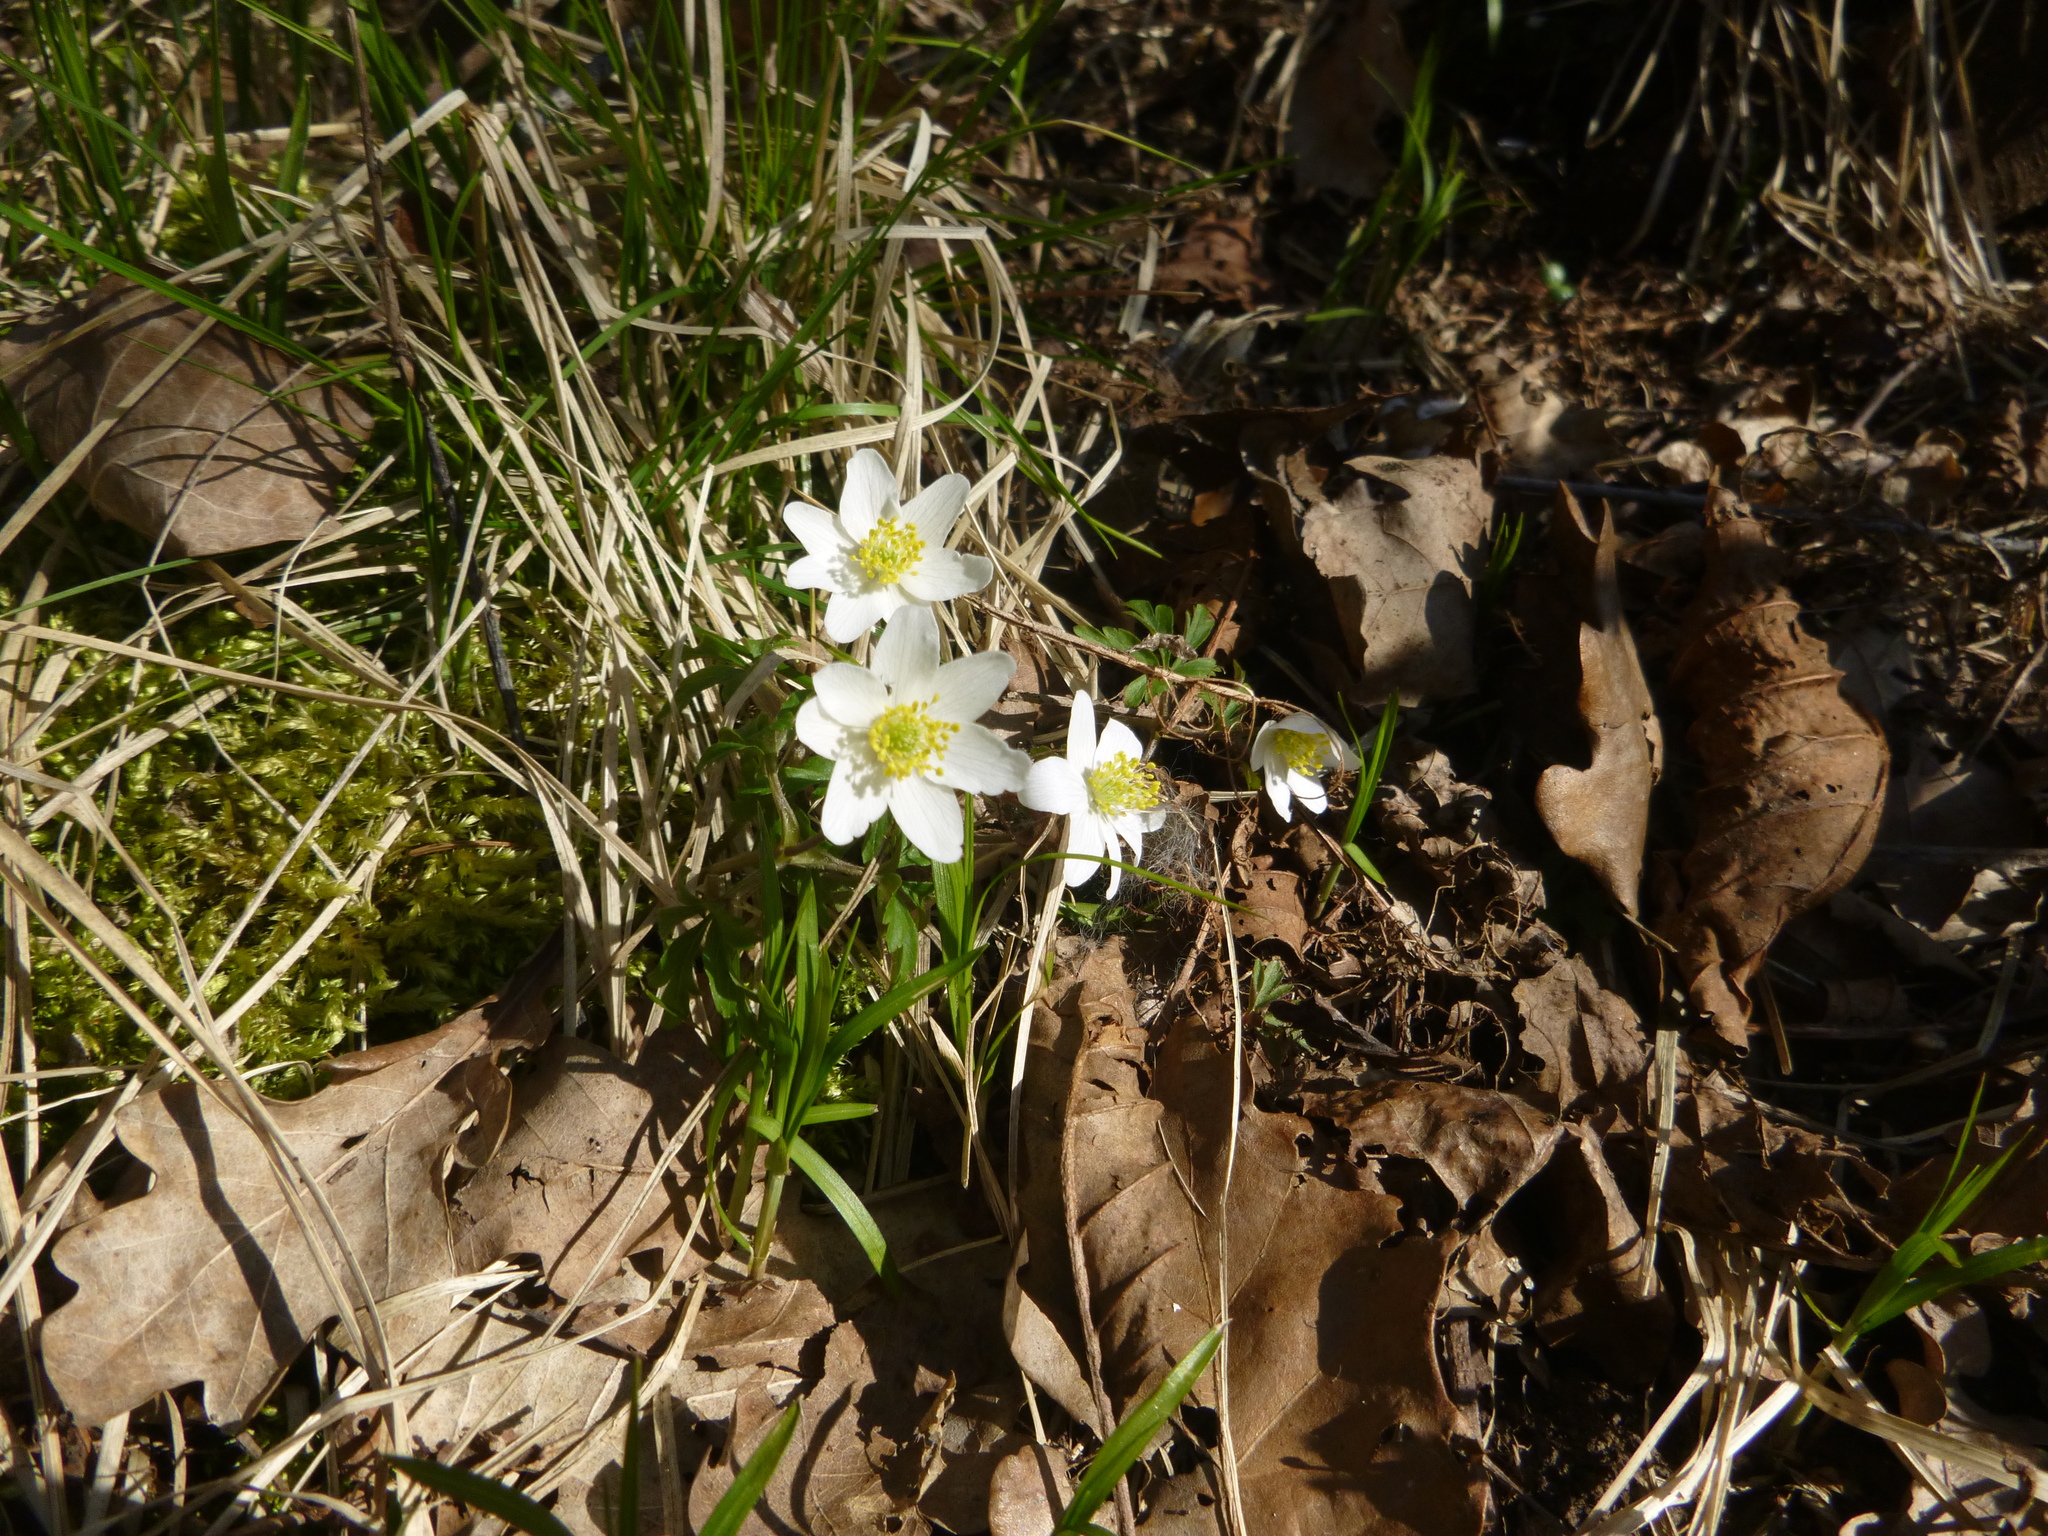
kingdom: Plantae
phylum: Tracheophyta
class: Magnoliopsida
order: Ranunculales
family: Ranunculaceae
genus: Anemone
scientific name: Anemone nemorosa
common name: Wood anemone
